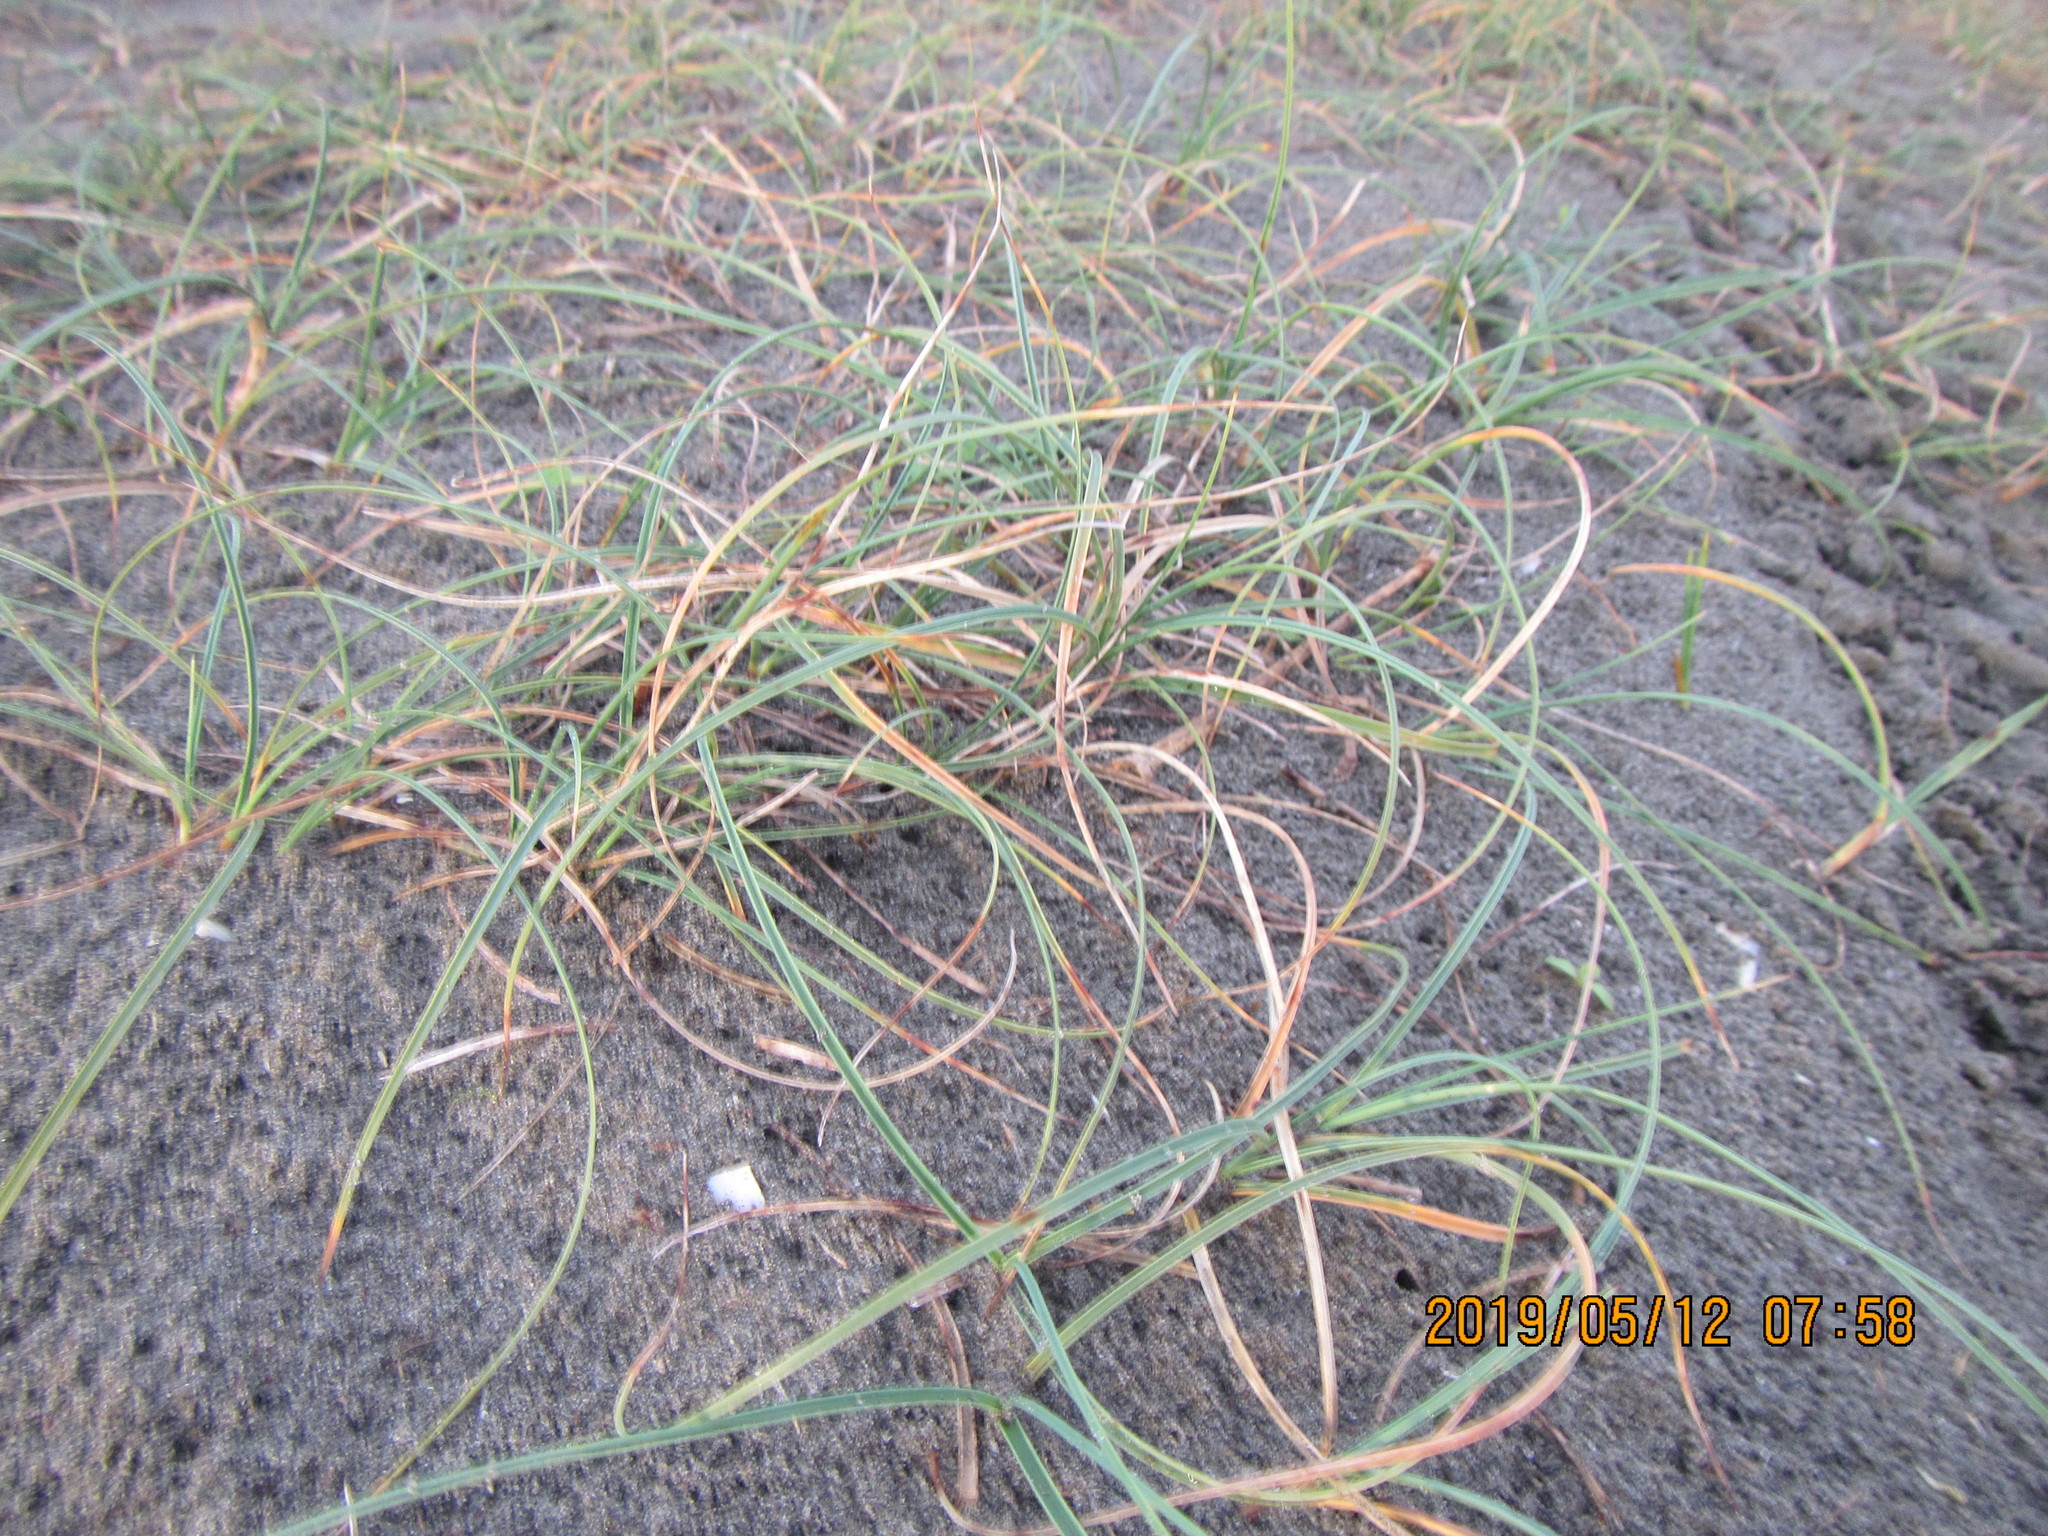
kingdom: Plantae
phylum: Tracheophyta
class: Liliopsida
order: Poales
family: Cyperaceae
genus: Carex
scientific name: Carex pumila
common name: Dwarf sedge
